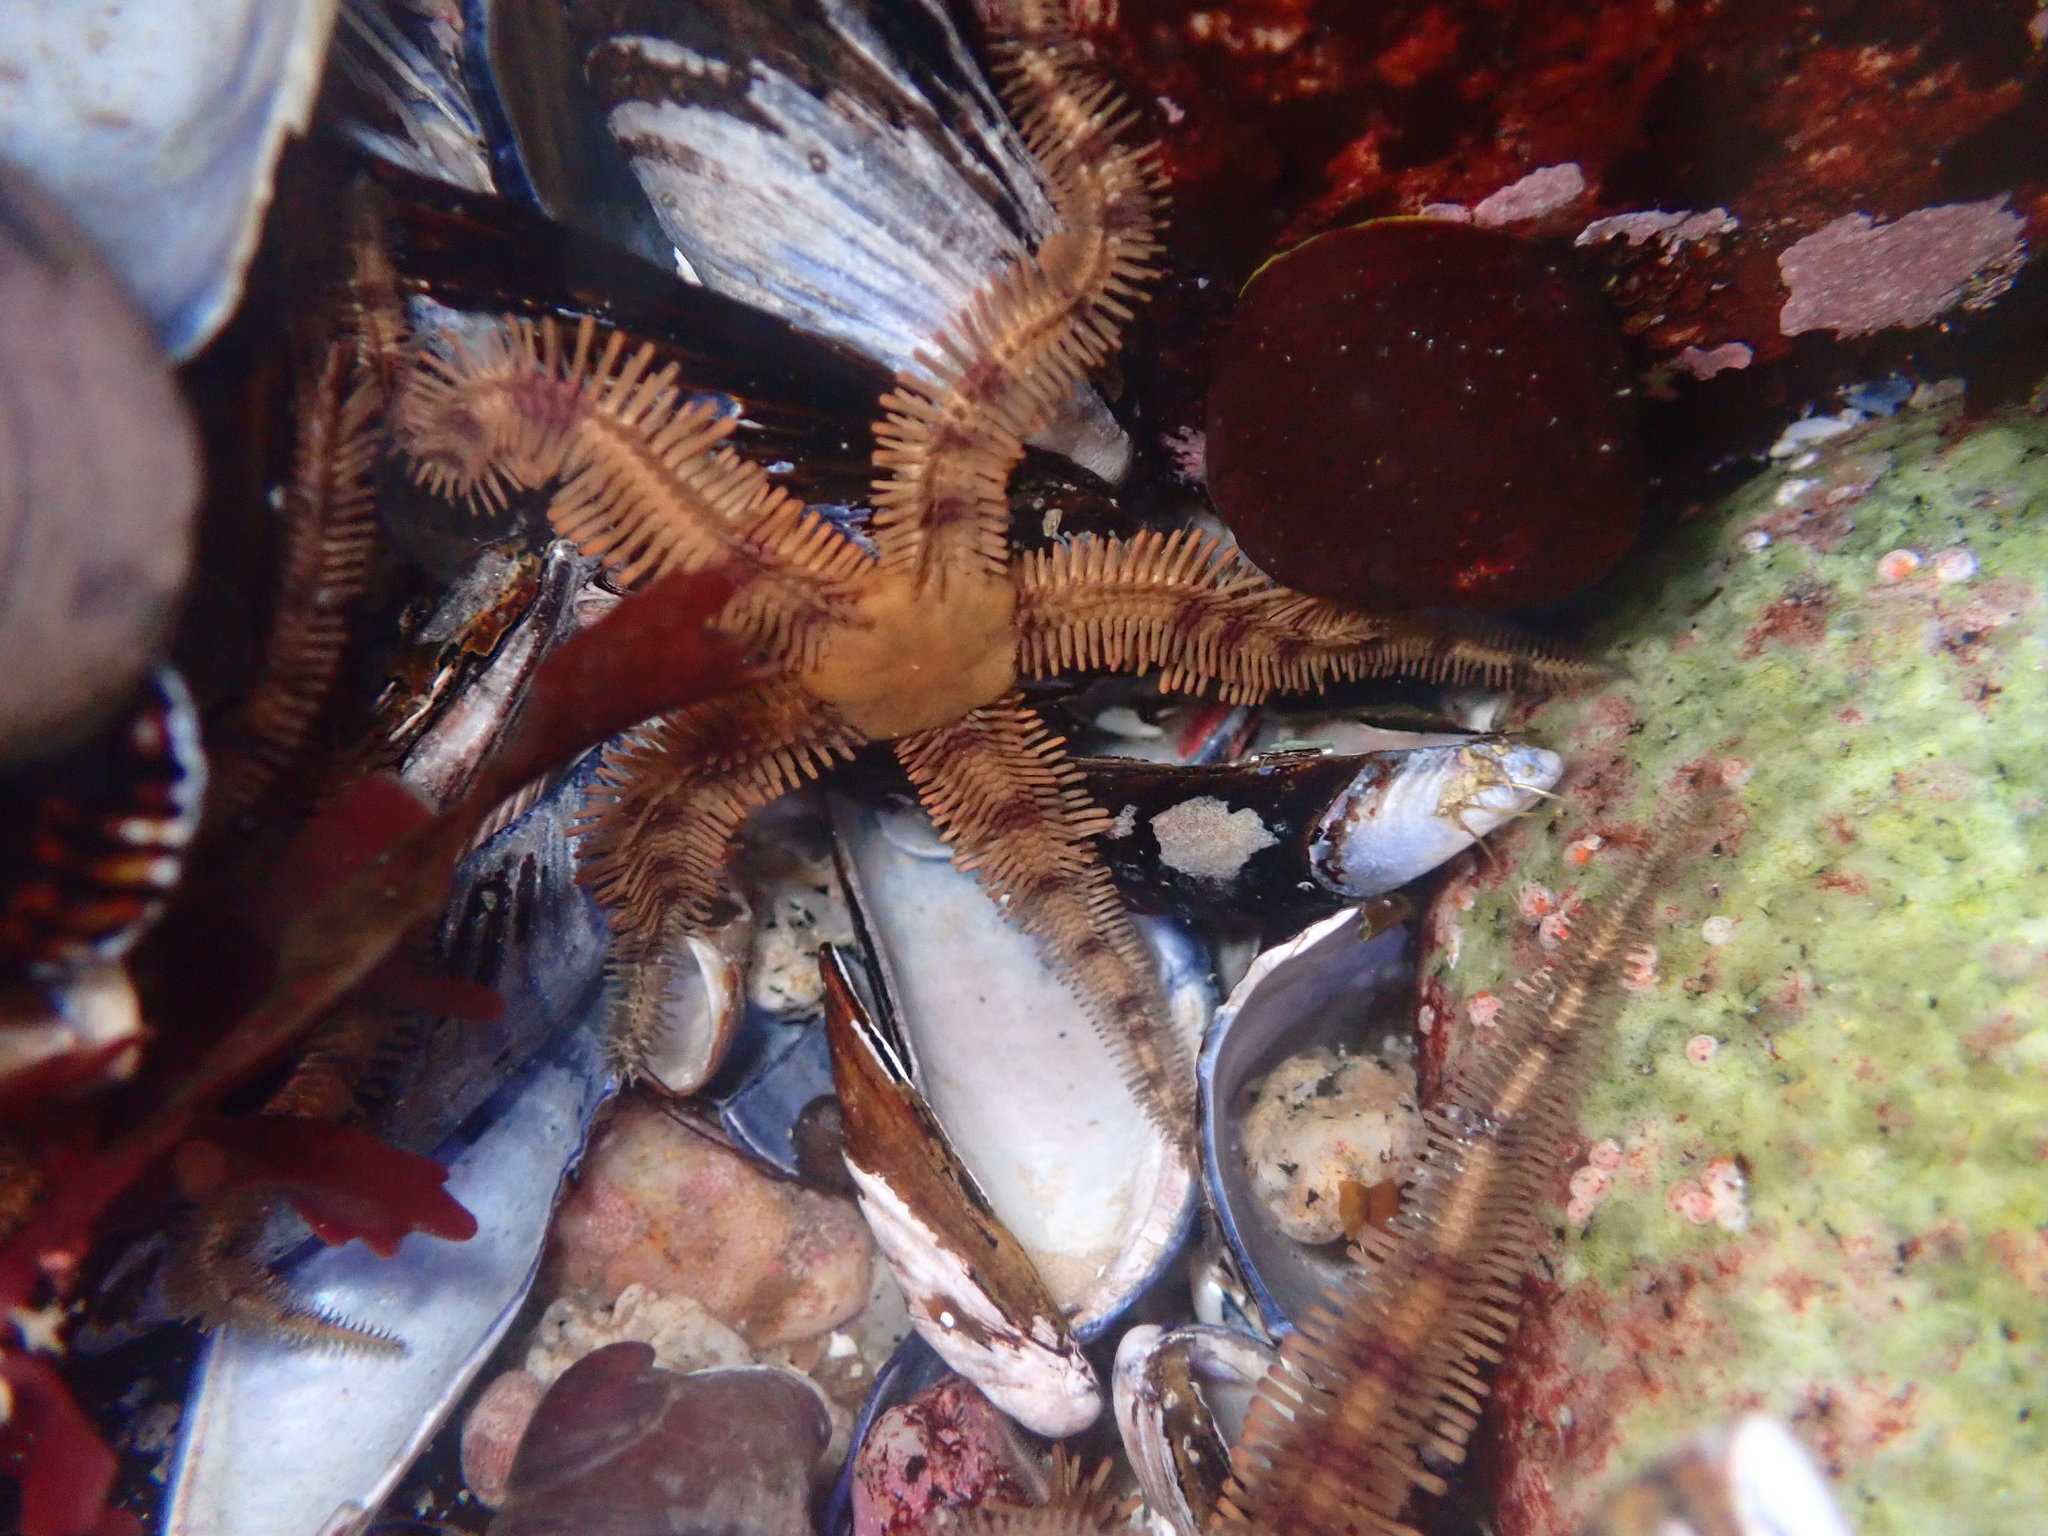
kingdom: Animalia
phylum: Echinodermata
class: Ophiuroidea
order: Ophiacanthida
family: Ophiopteridae
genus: Ophiopteris
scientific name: Ophiopteris papillosa
